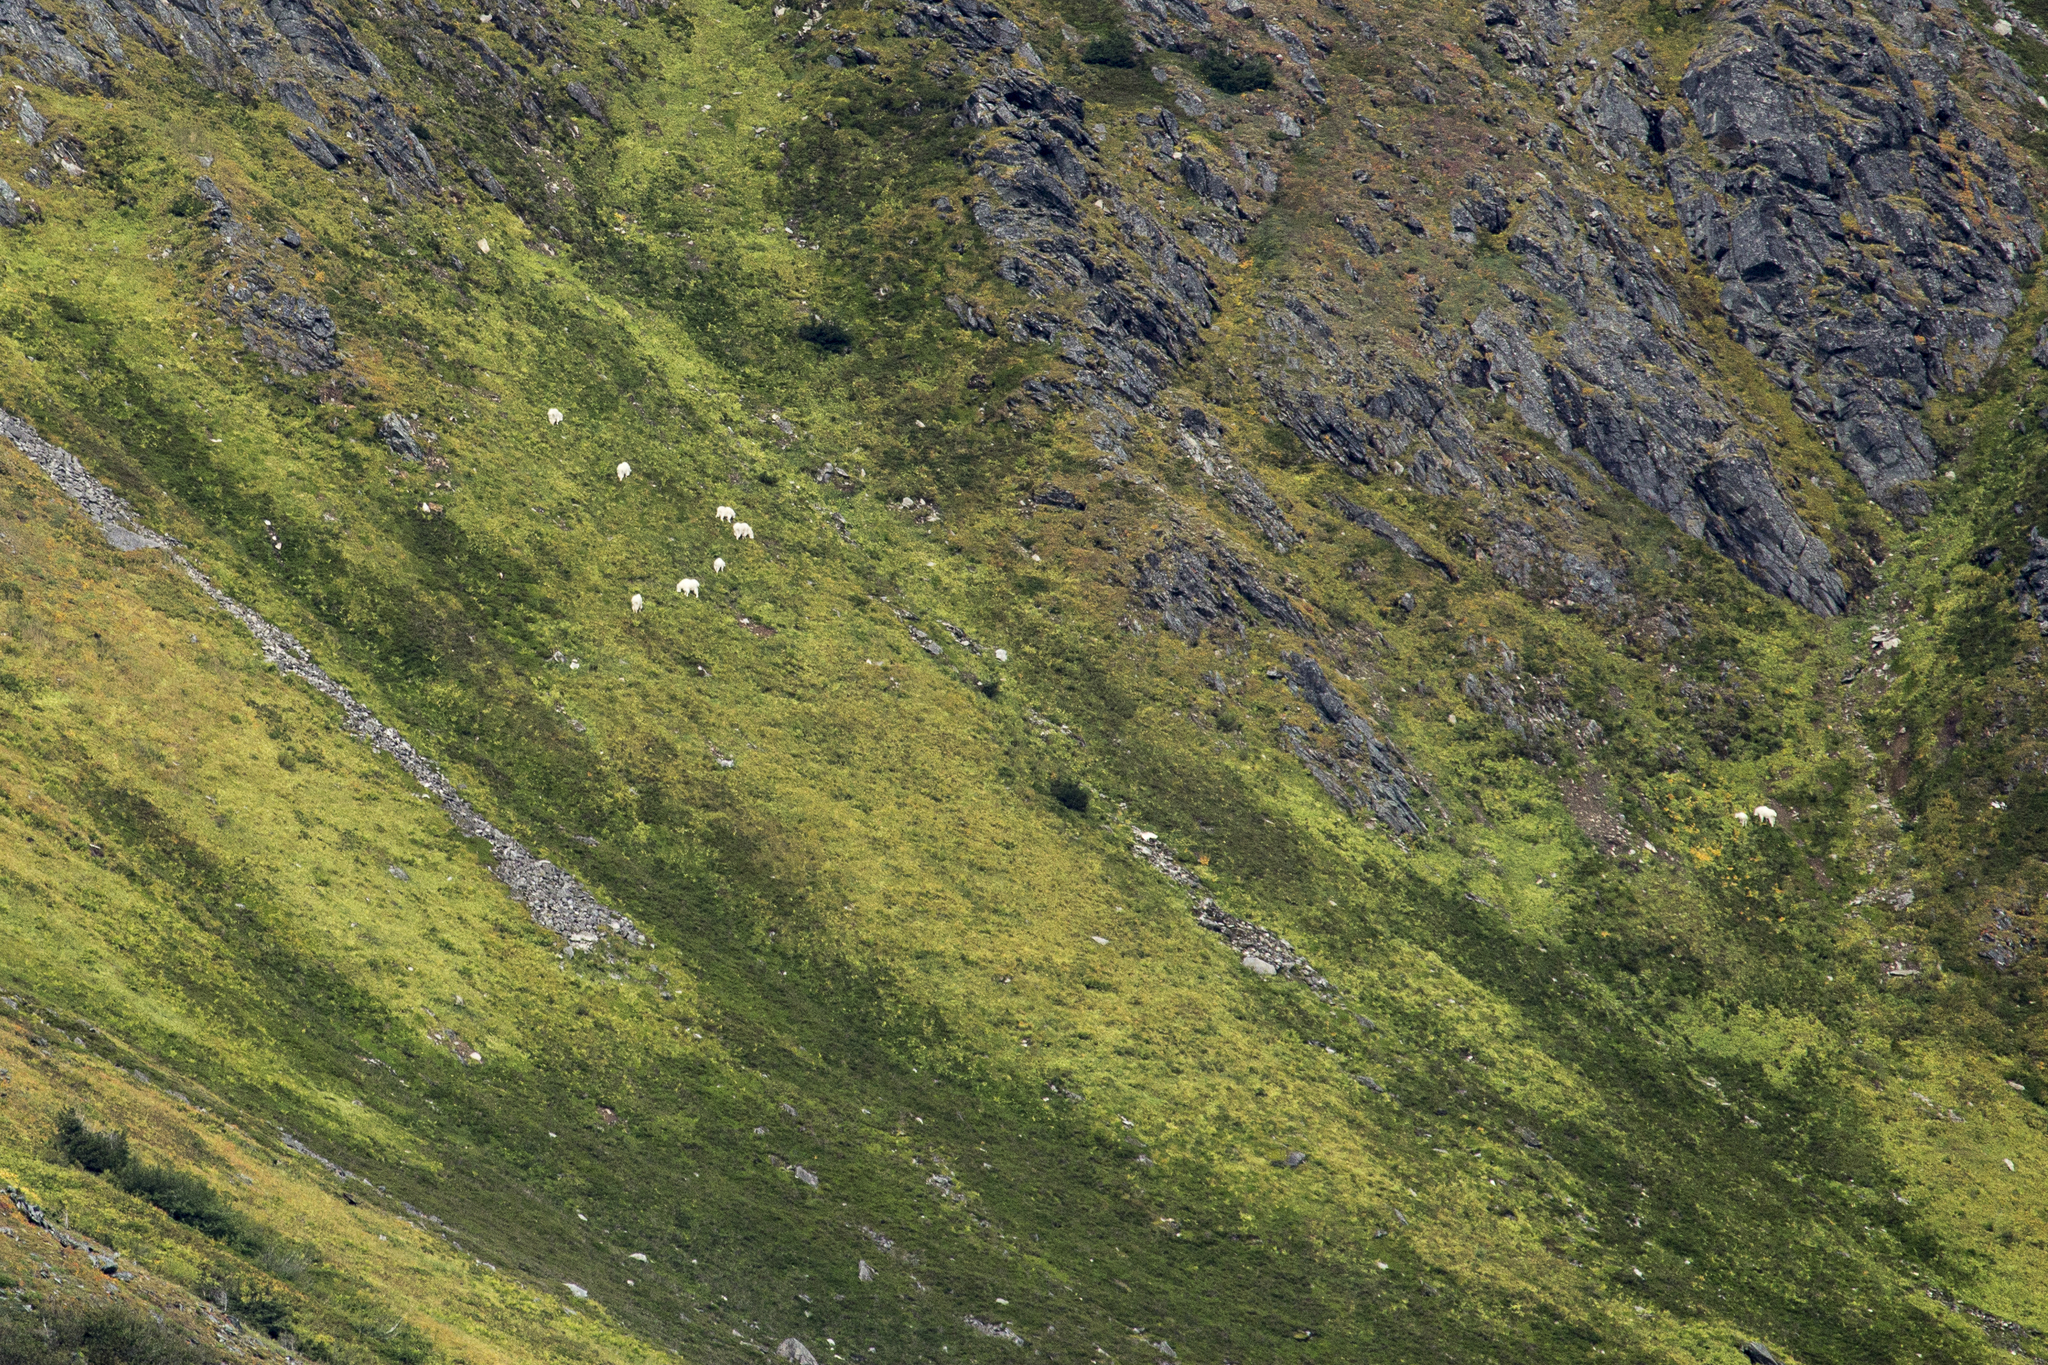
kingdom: Animalia
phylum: Chordata
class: Mammalia
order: Artiodactyla
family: Bovidae
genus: Oreamnos
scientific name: Oreamnos americanus
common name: Mountain goat
